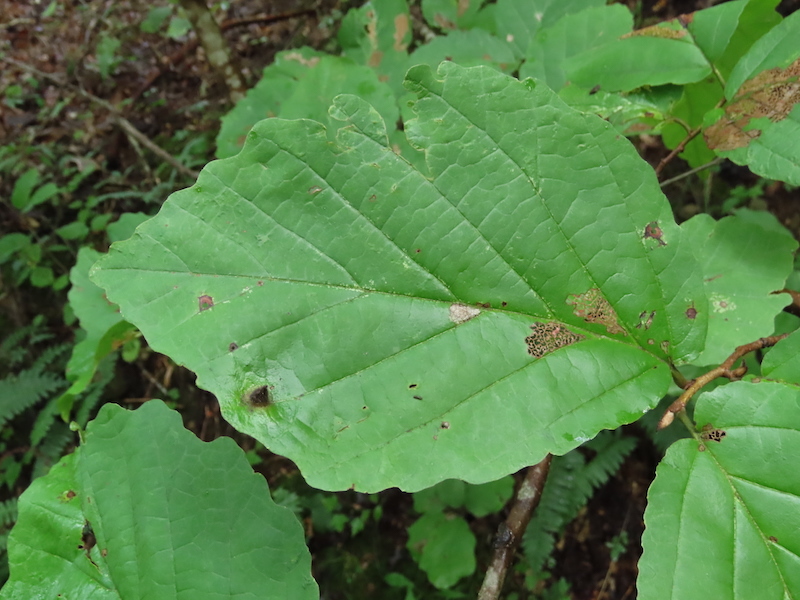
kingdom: Animalia
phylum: Arthropoda
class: Insecta
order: Hemiptera
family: Aphididae
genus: Hormaphis
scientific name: Hormaphis hamamelidis
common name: Witch-hazel cone gall aphid
